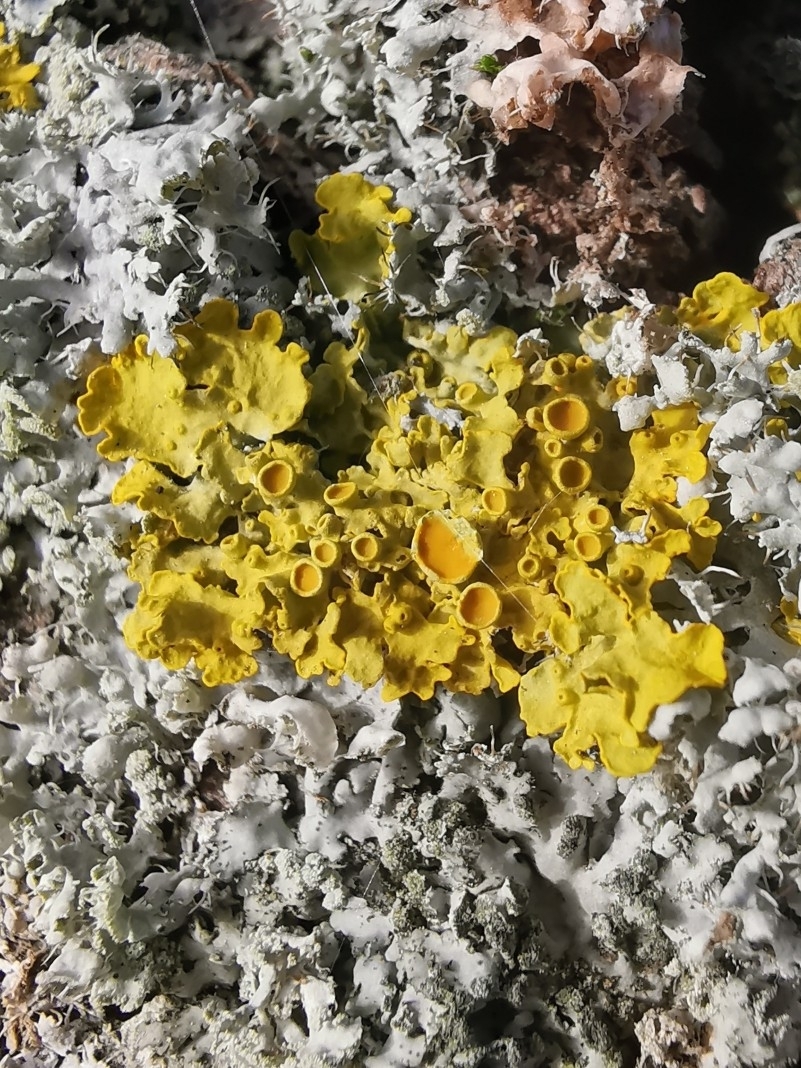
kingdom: Fungi
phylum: Ascomycota
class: Lecanoromycetes
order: Teloschistales
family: Teloschistaceae
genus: Xanthoria
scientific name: Xanthoria parietina
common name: Common orange lichen
